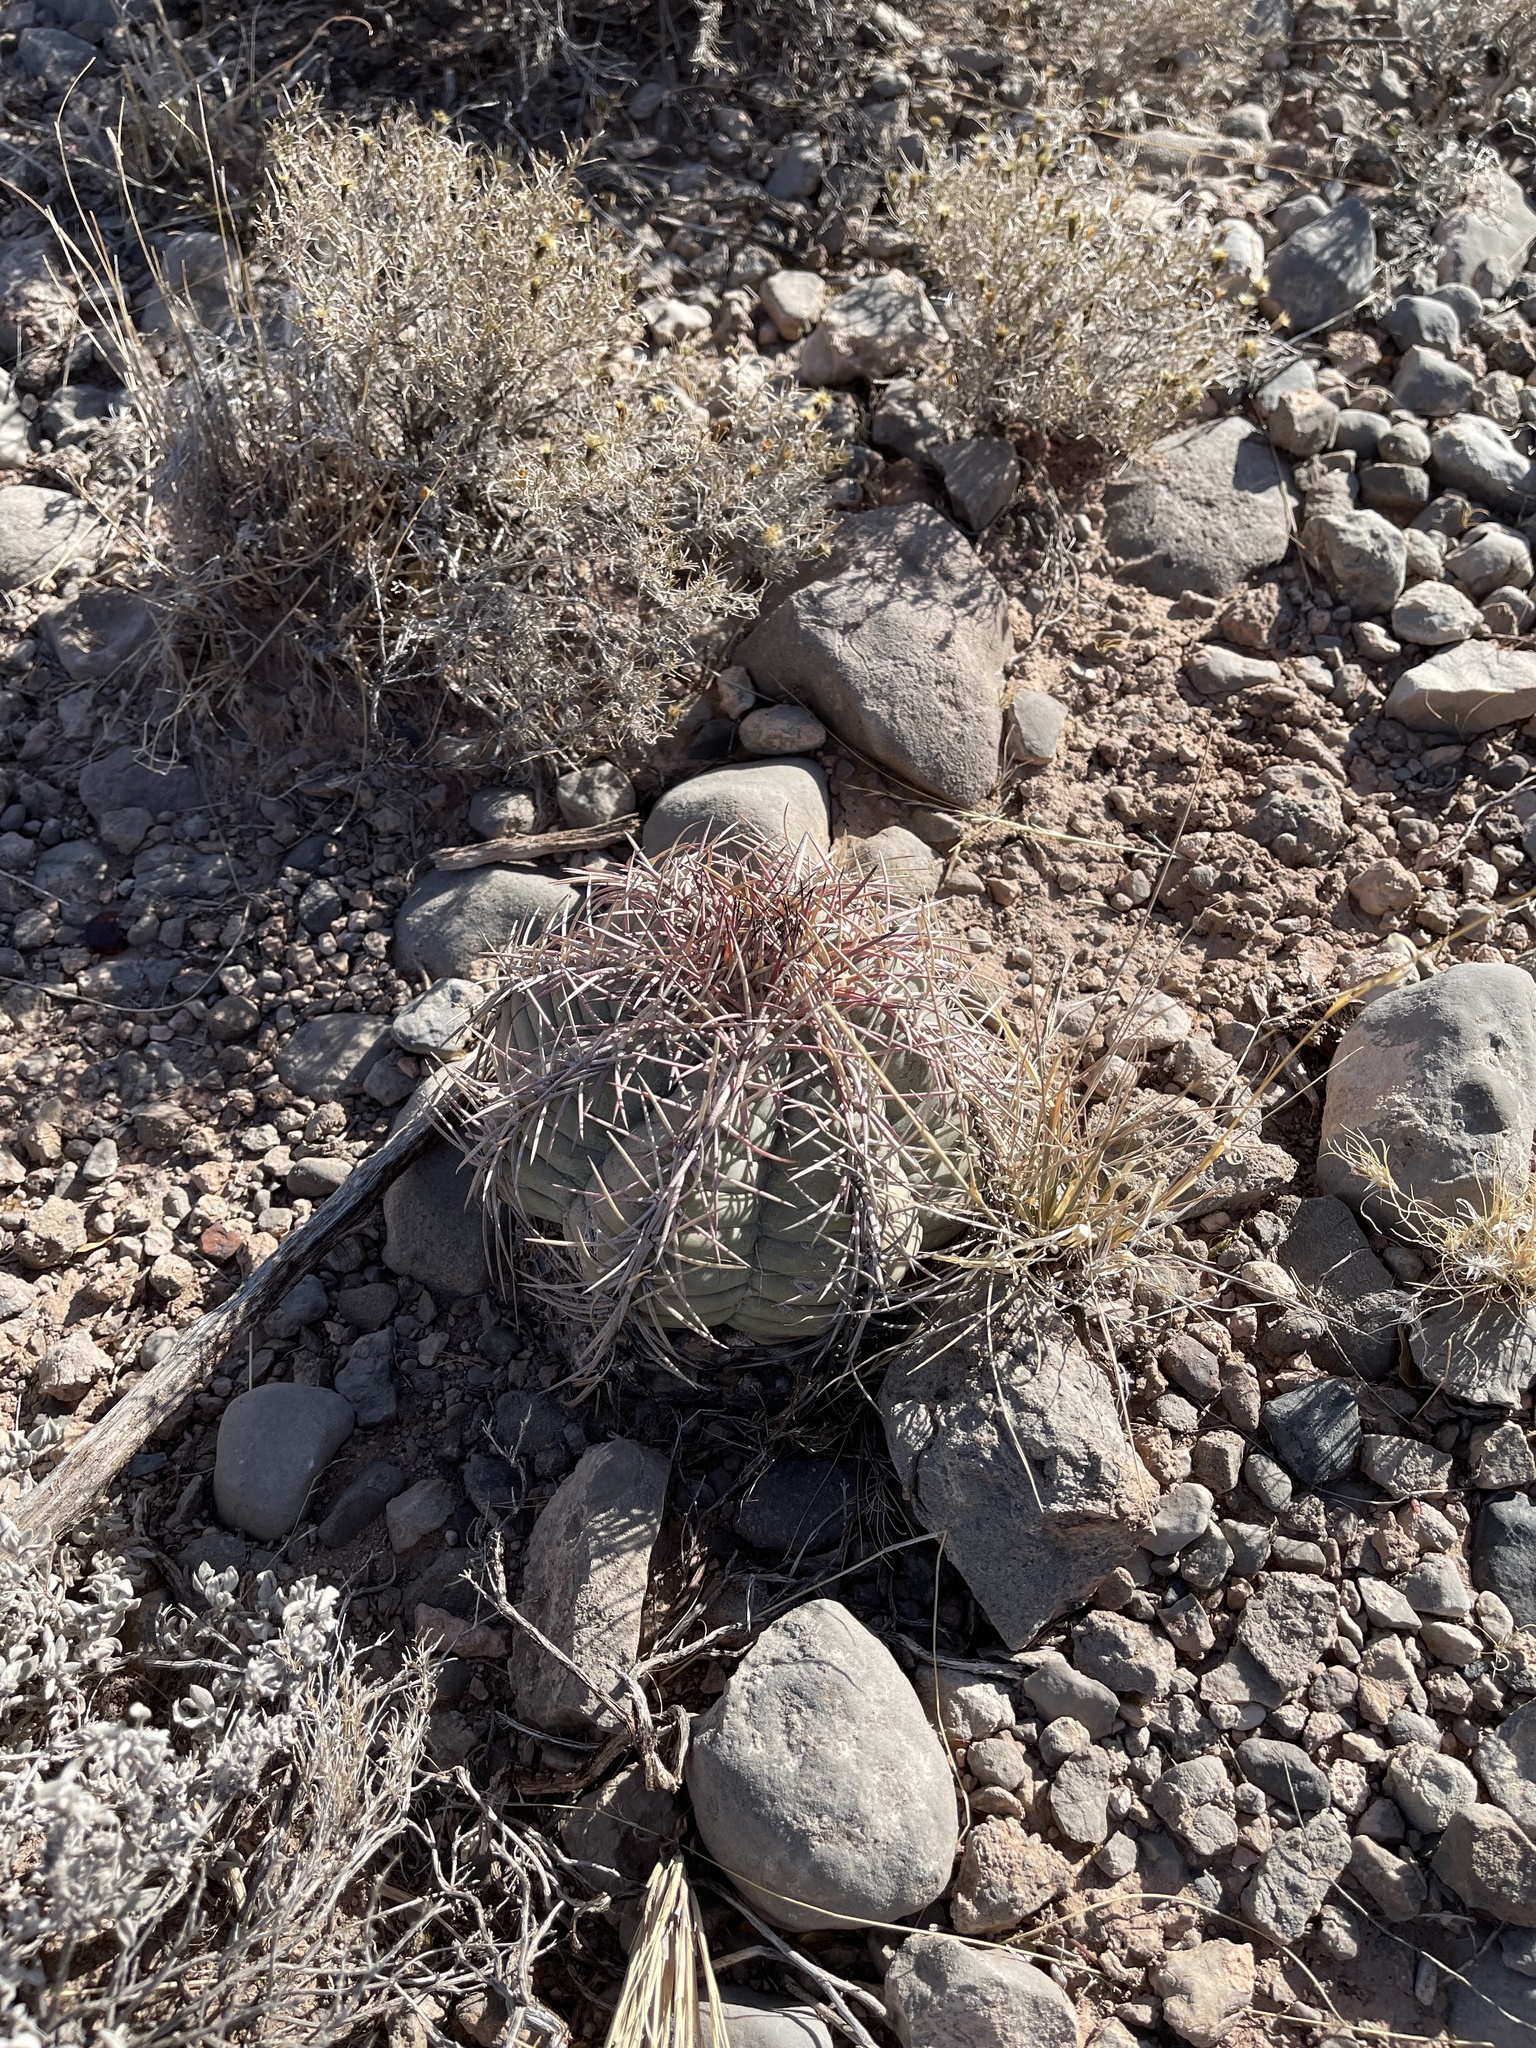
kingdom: Plantae
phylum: Tracheophyta
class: Magnoliopsida
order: Caryophyllales
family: Cactaceae
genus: Echinocactus
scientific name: Echinocactus horizonthalonius
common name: Devilshead
